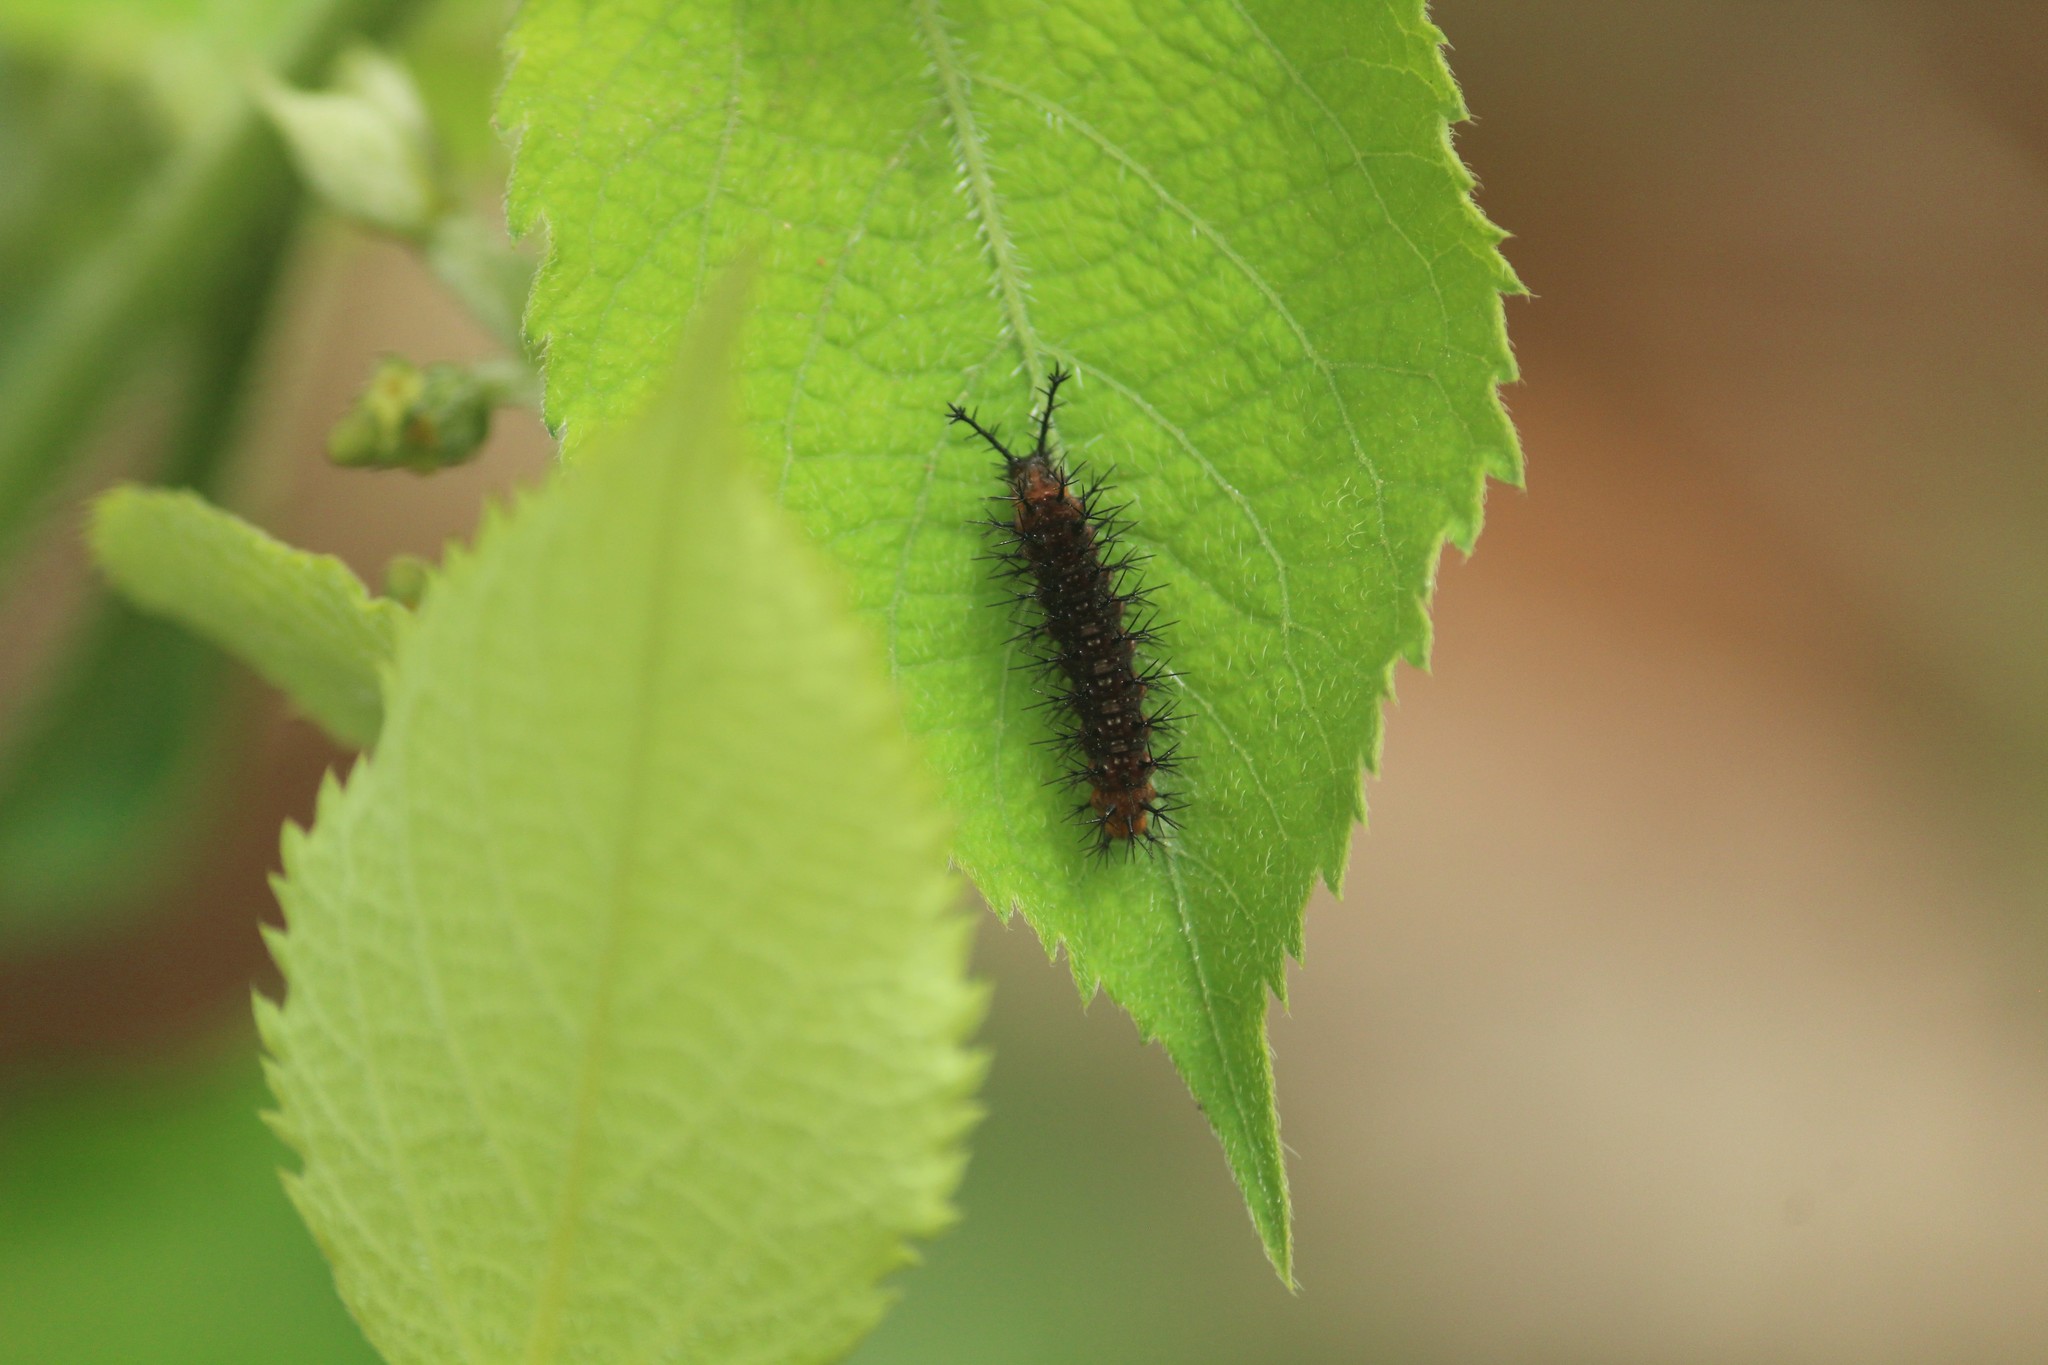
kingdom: Animalia
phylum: Arthropoda
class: Insecta
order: Lepidoptera
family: Nymphalidae
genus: Ariadne
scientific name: Ariadne ariadne
